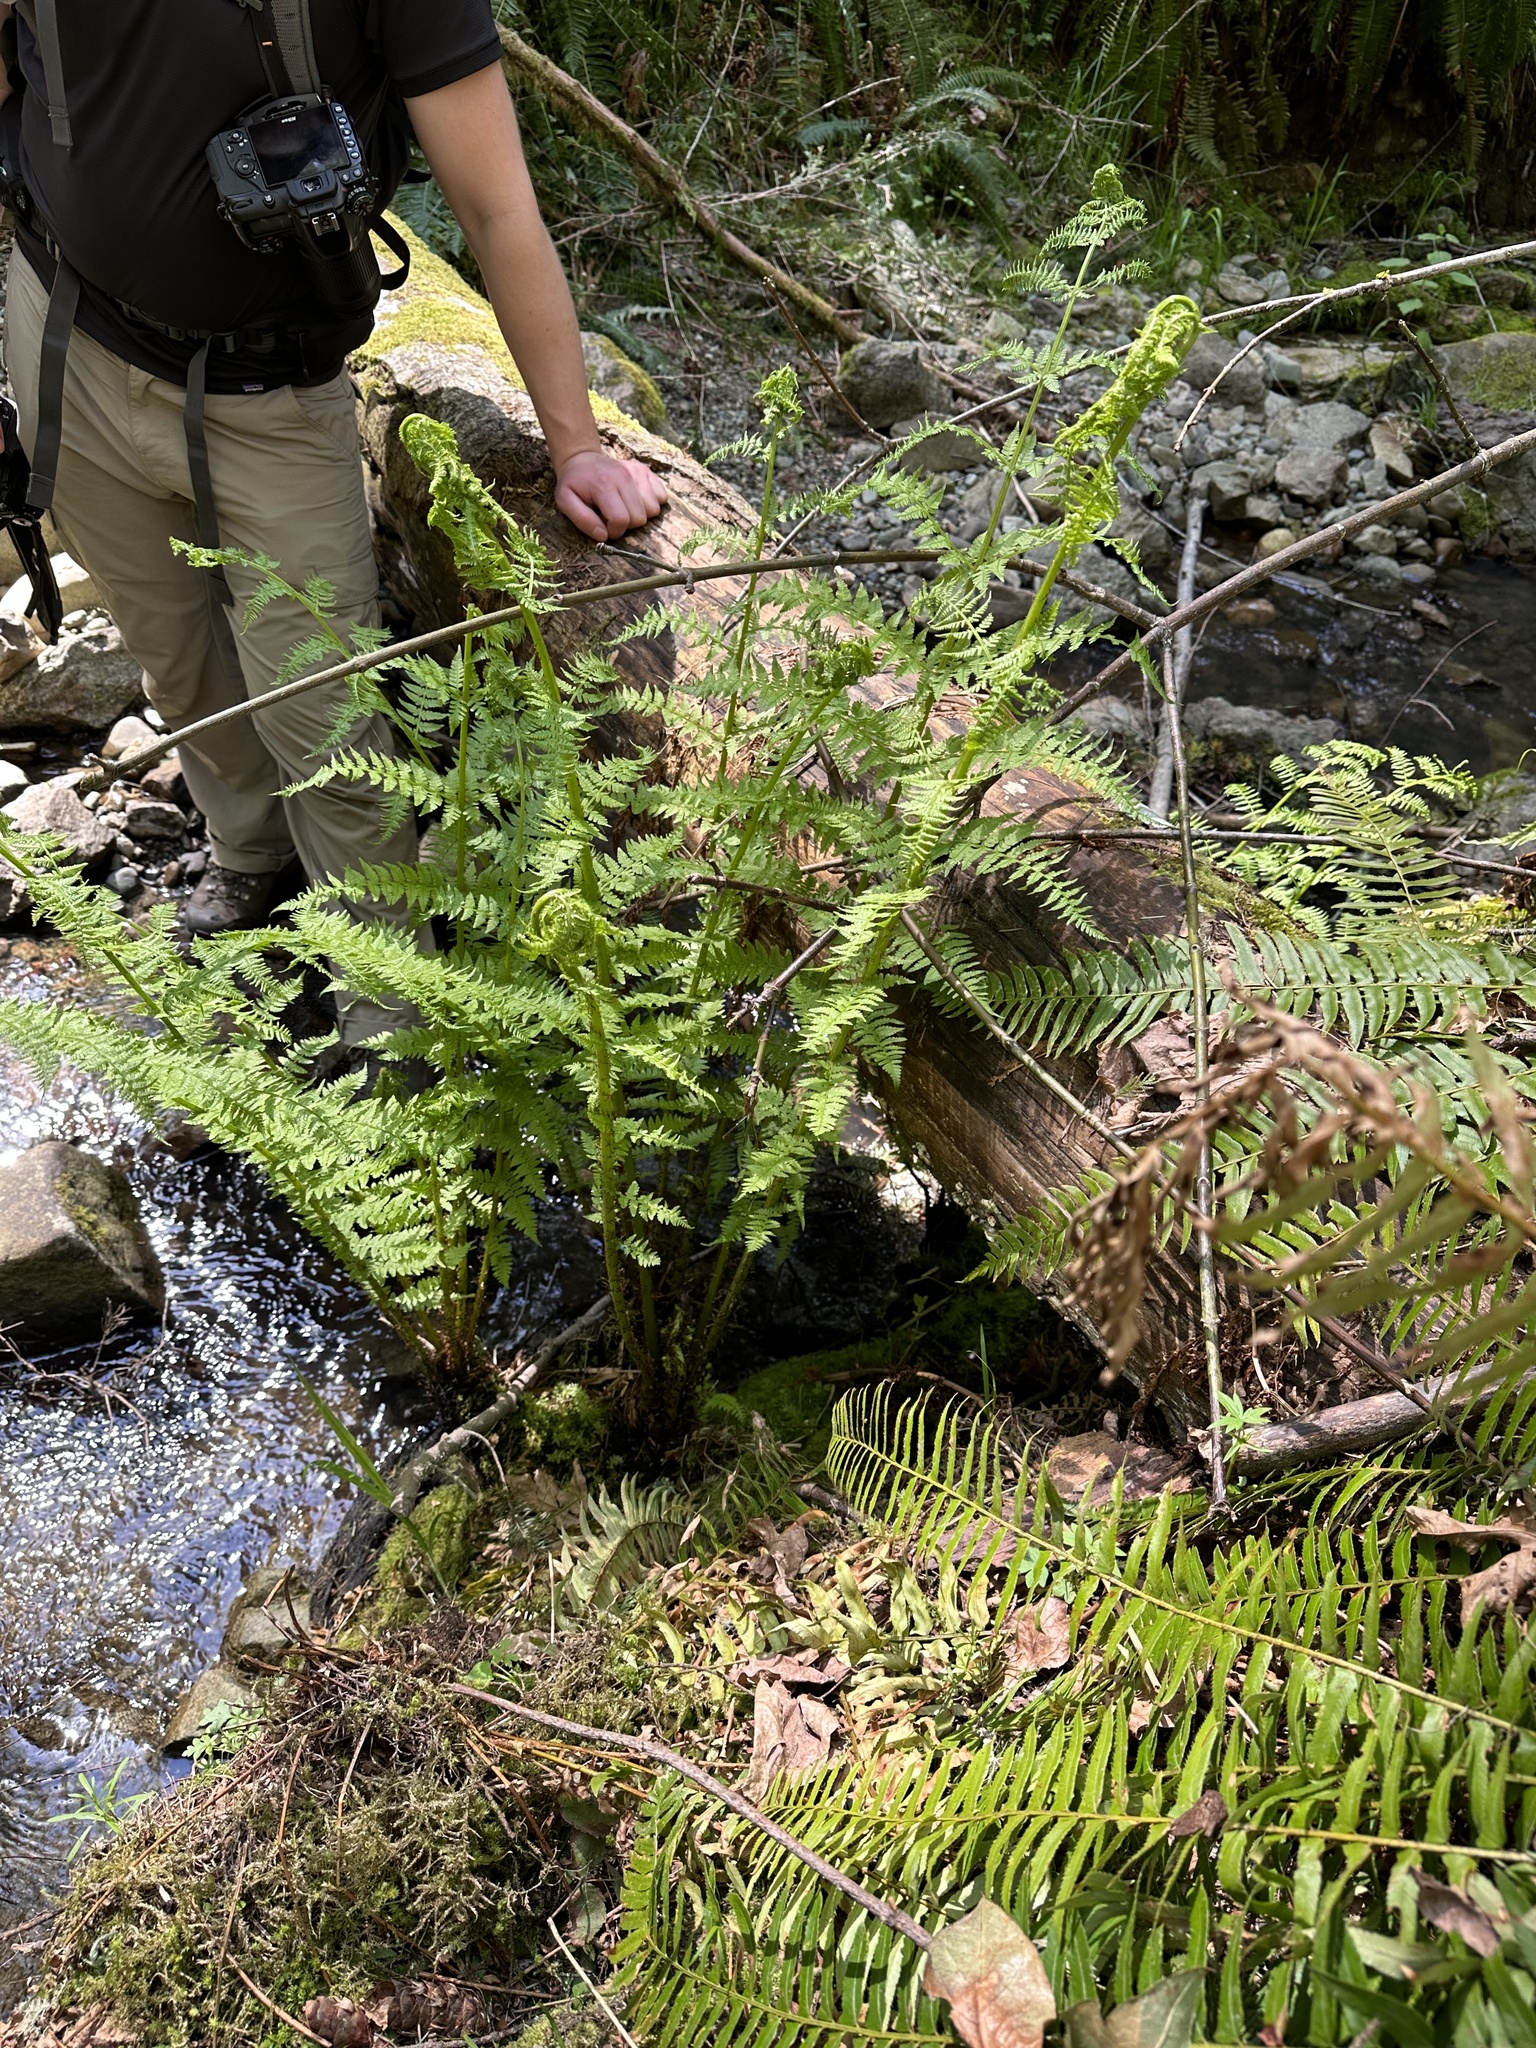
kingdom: Plantae
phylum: Tracheophyta
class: Polypodiopsida
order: Polypodiales
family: Athyriaceae
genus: Athyrium
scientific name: Athyrium filix-femina
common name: Lady fern
